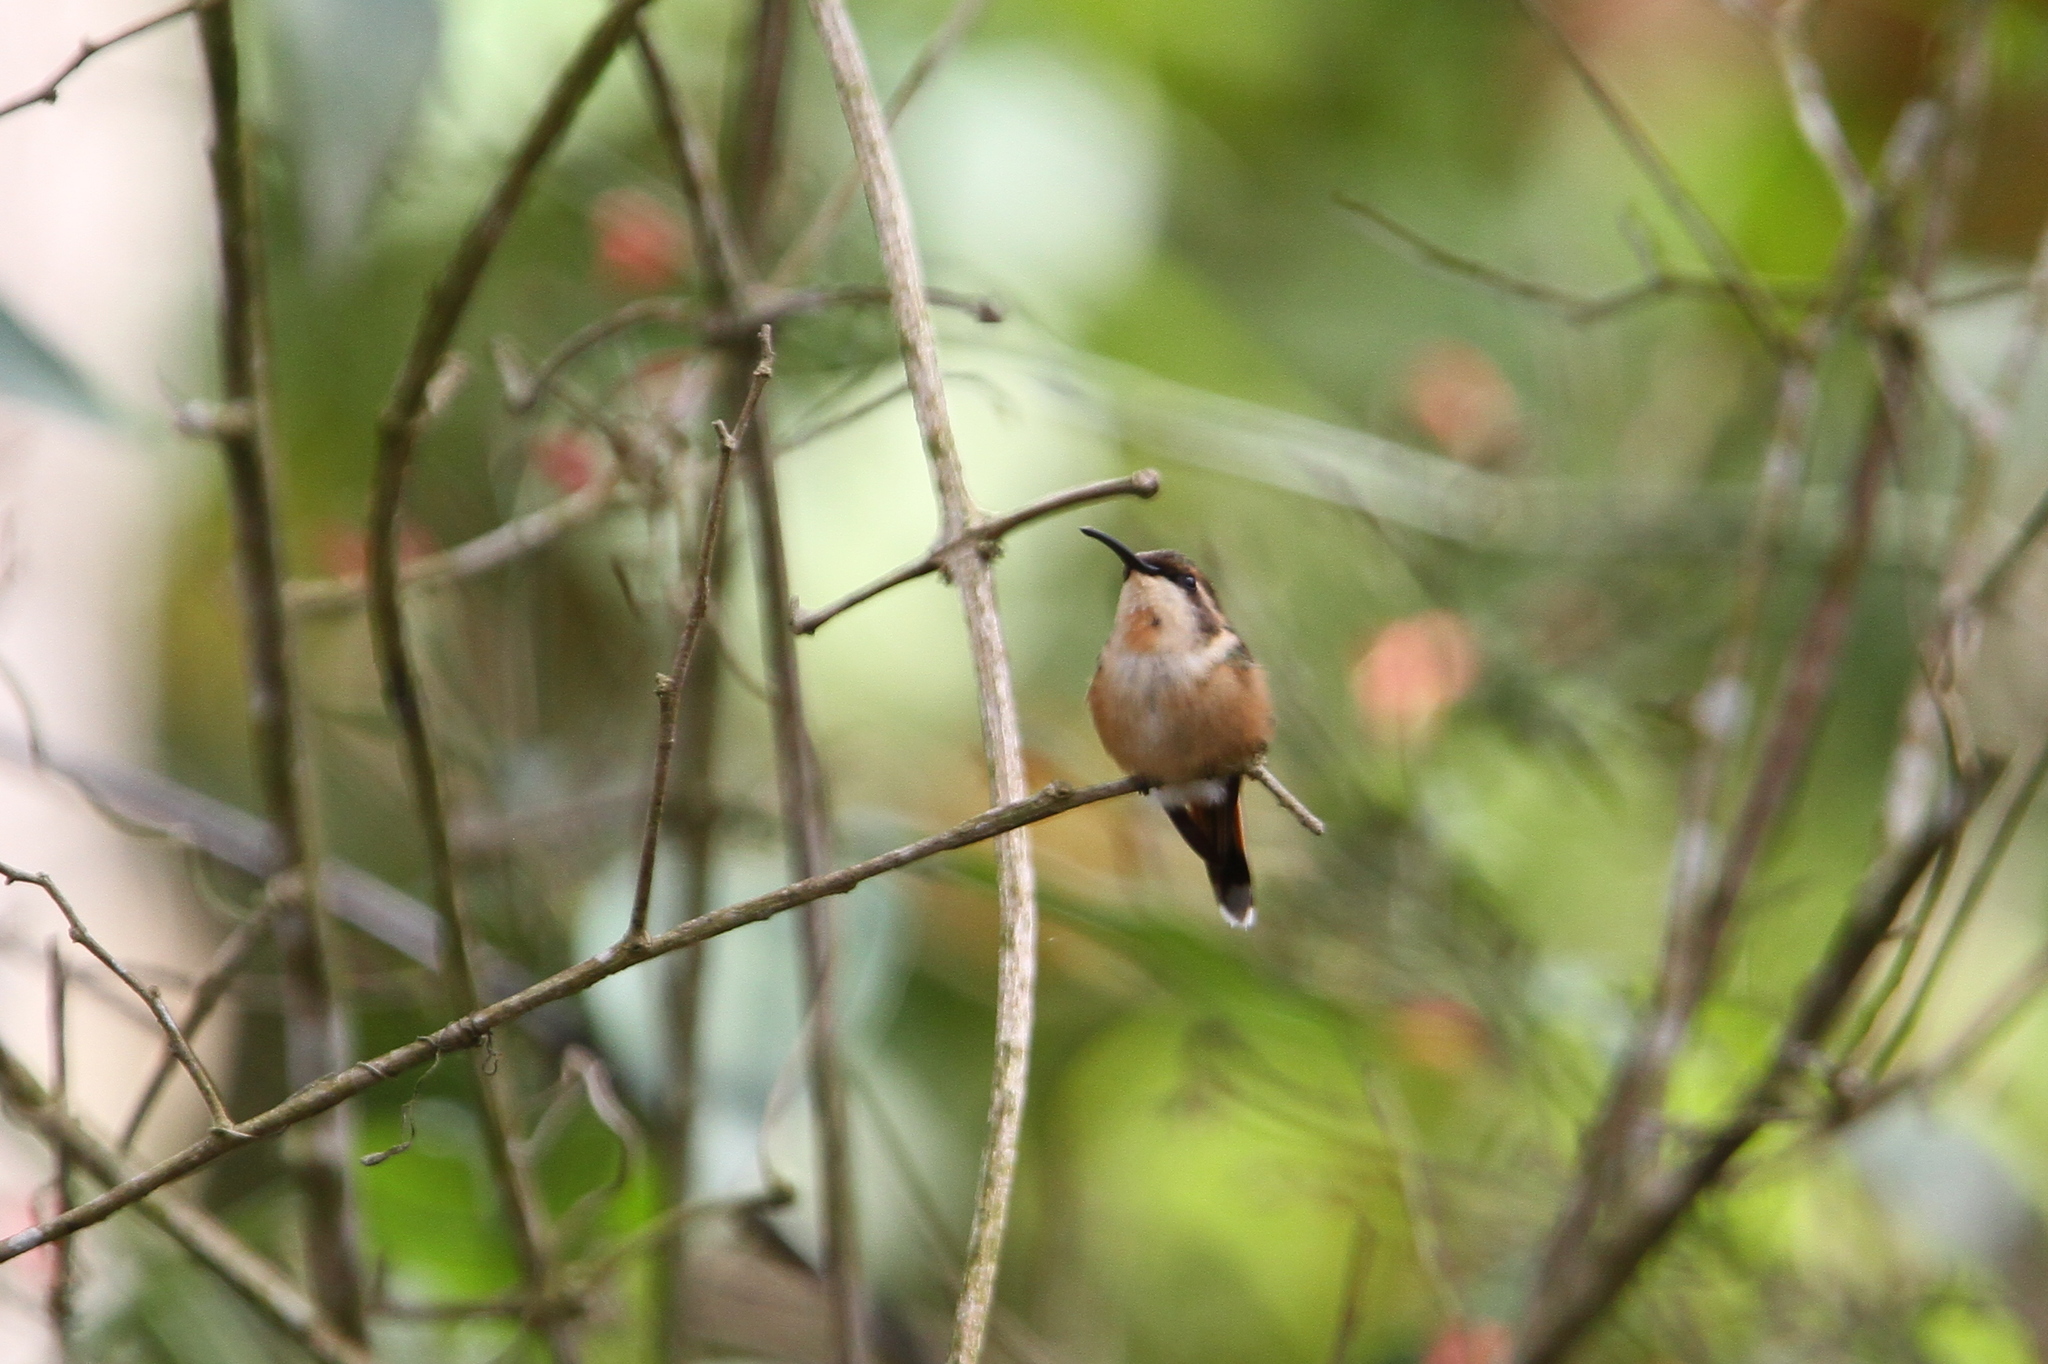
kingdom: Animalia
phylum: Chordata
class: Aves
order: Apodiformes
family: Trochilidae
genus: Doricha
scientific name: Doricha enicura
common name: Slender sheartail
